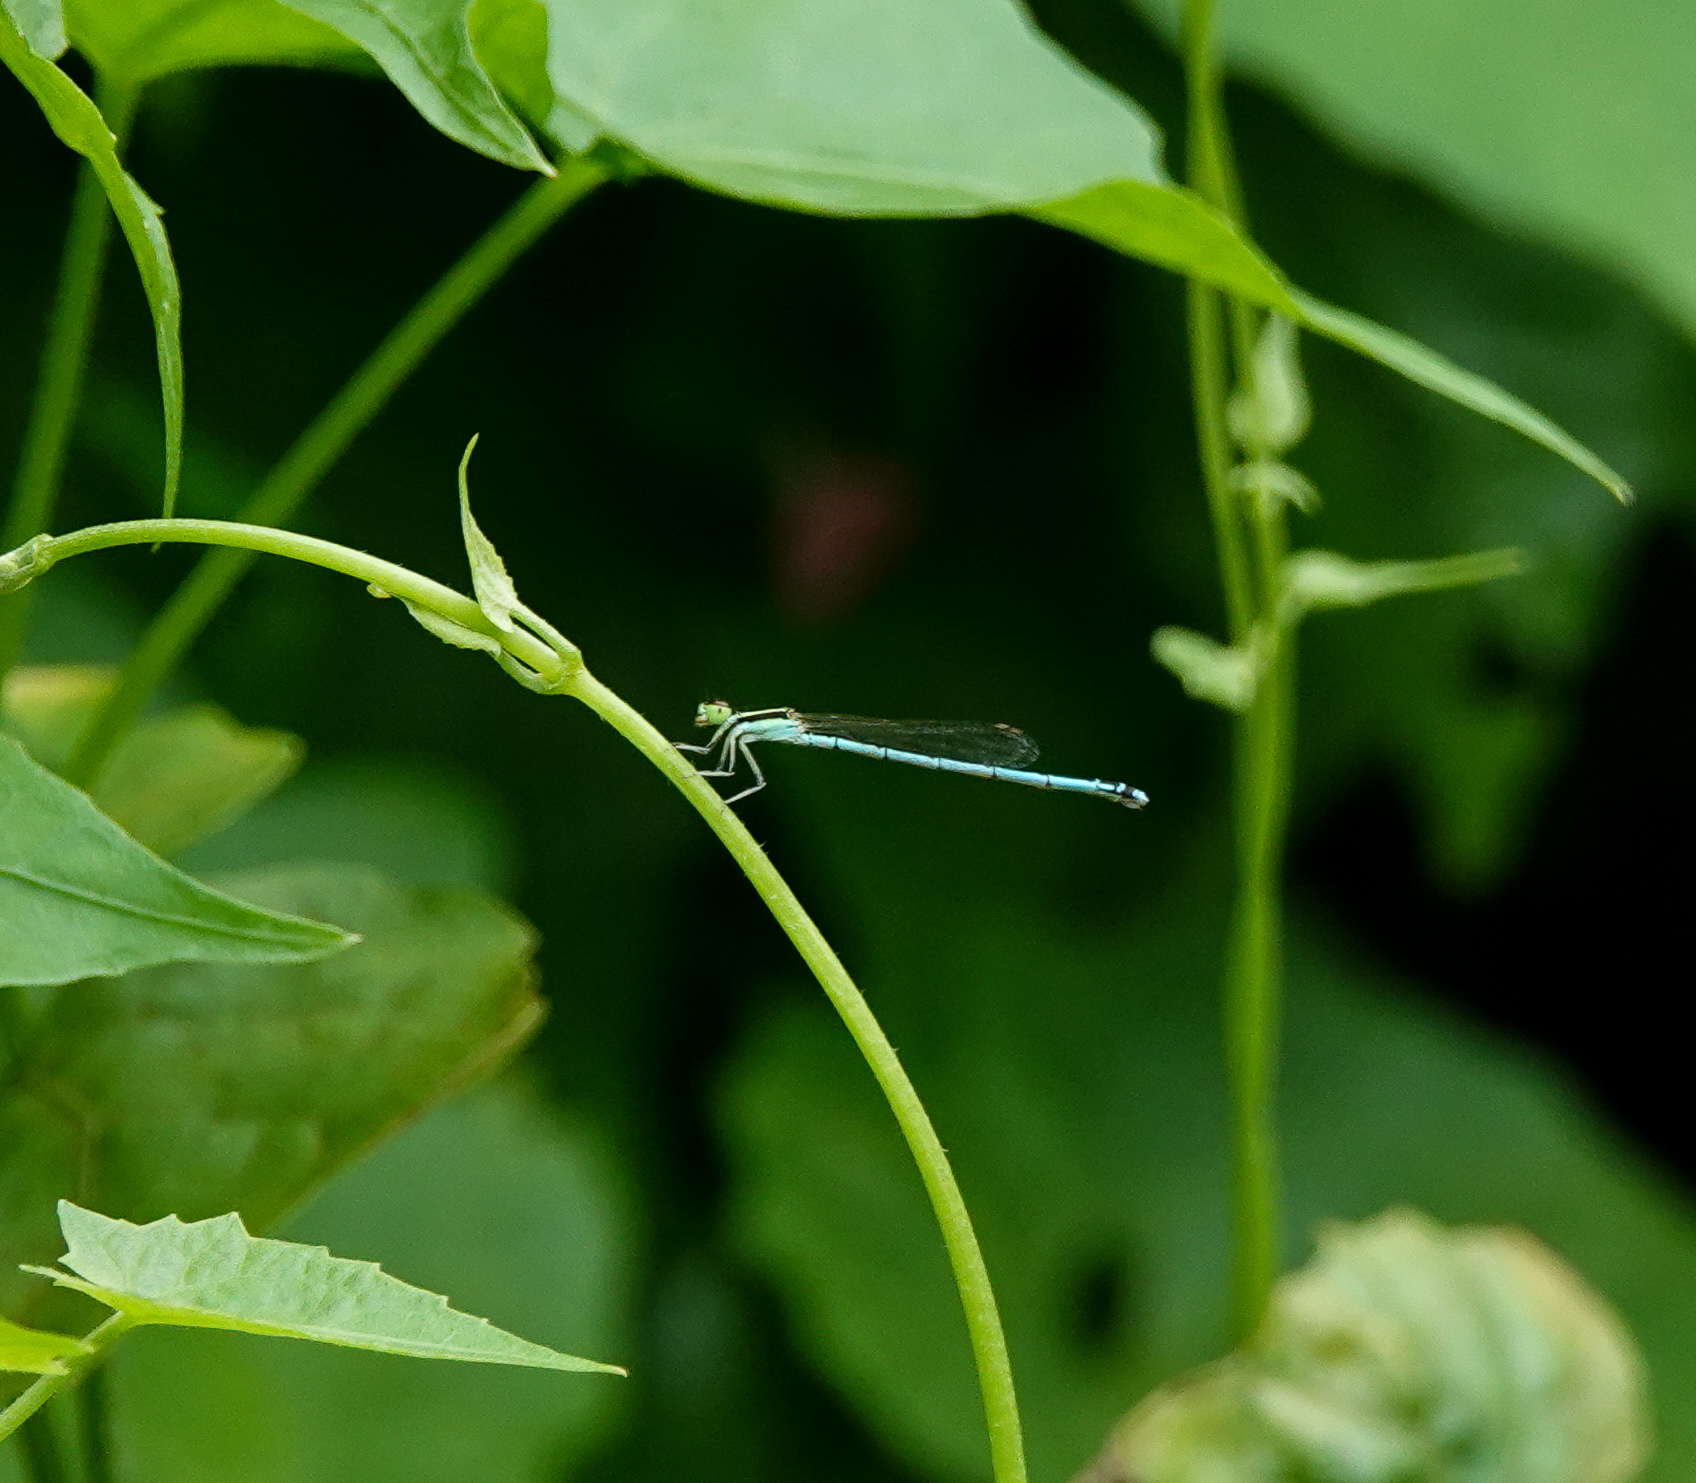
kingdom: Animalia
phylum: Arthropoda
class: Insecta
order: Odonata
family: Coenagrionidae
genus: Agriocnemis
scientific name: Agriocnemis lacteola
